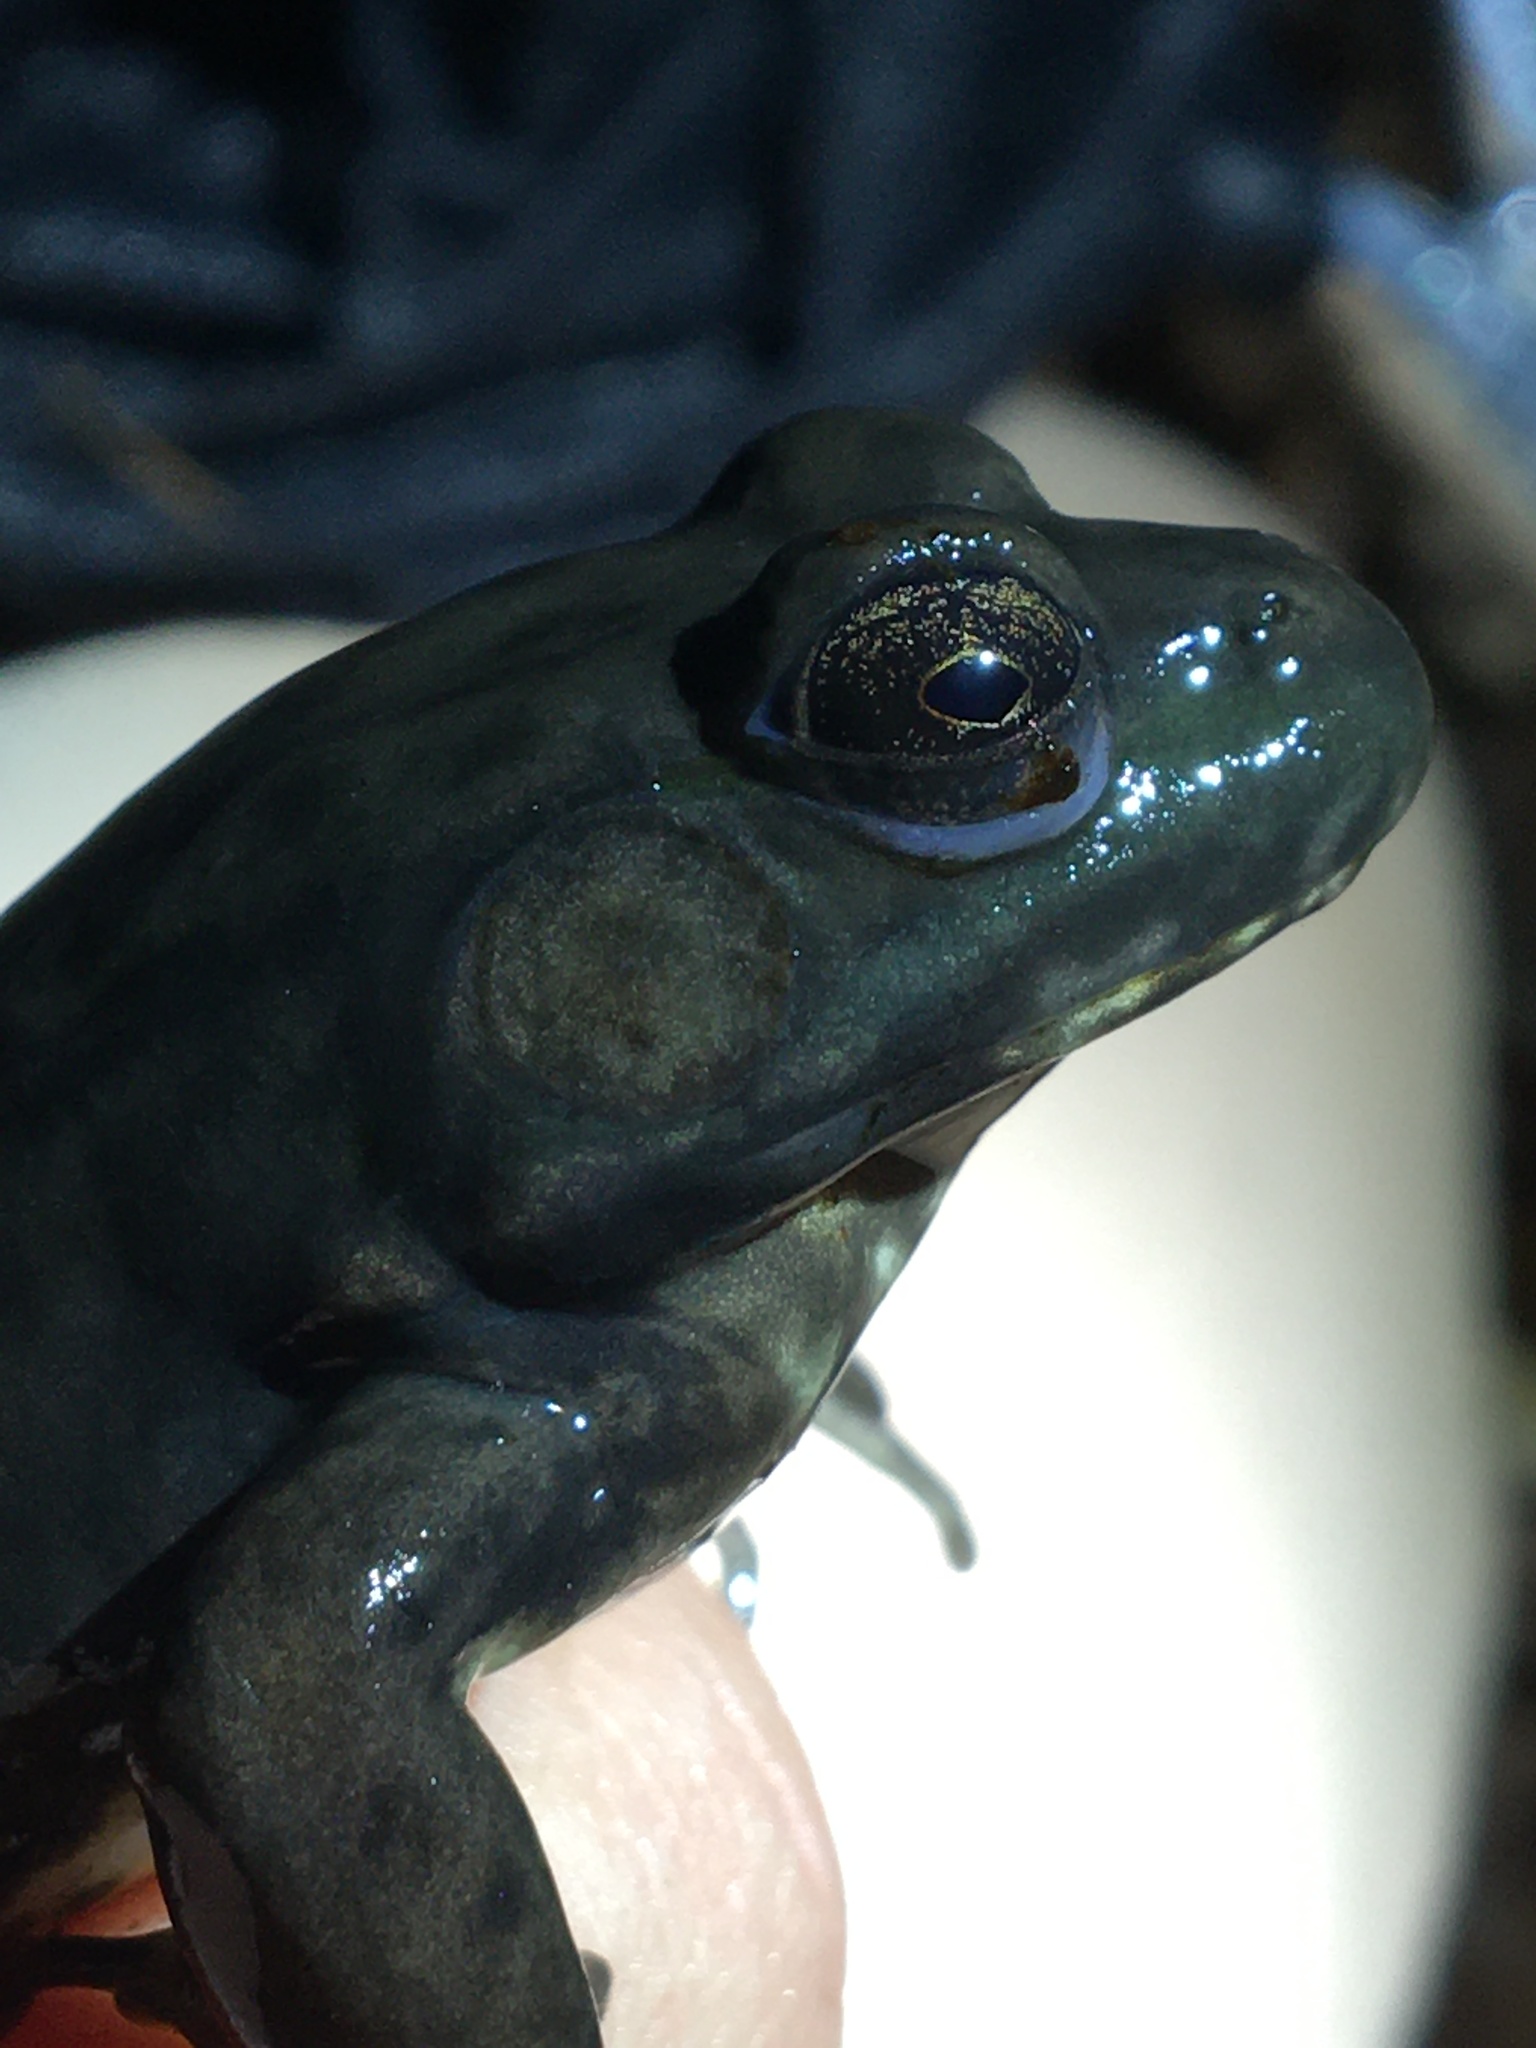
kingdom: Animalia
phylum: Chordata
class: Amphibia
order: Anura
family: Ranidae
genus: Lithobates
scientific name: Lithobates clamitans
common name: Green frog
